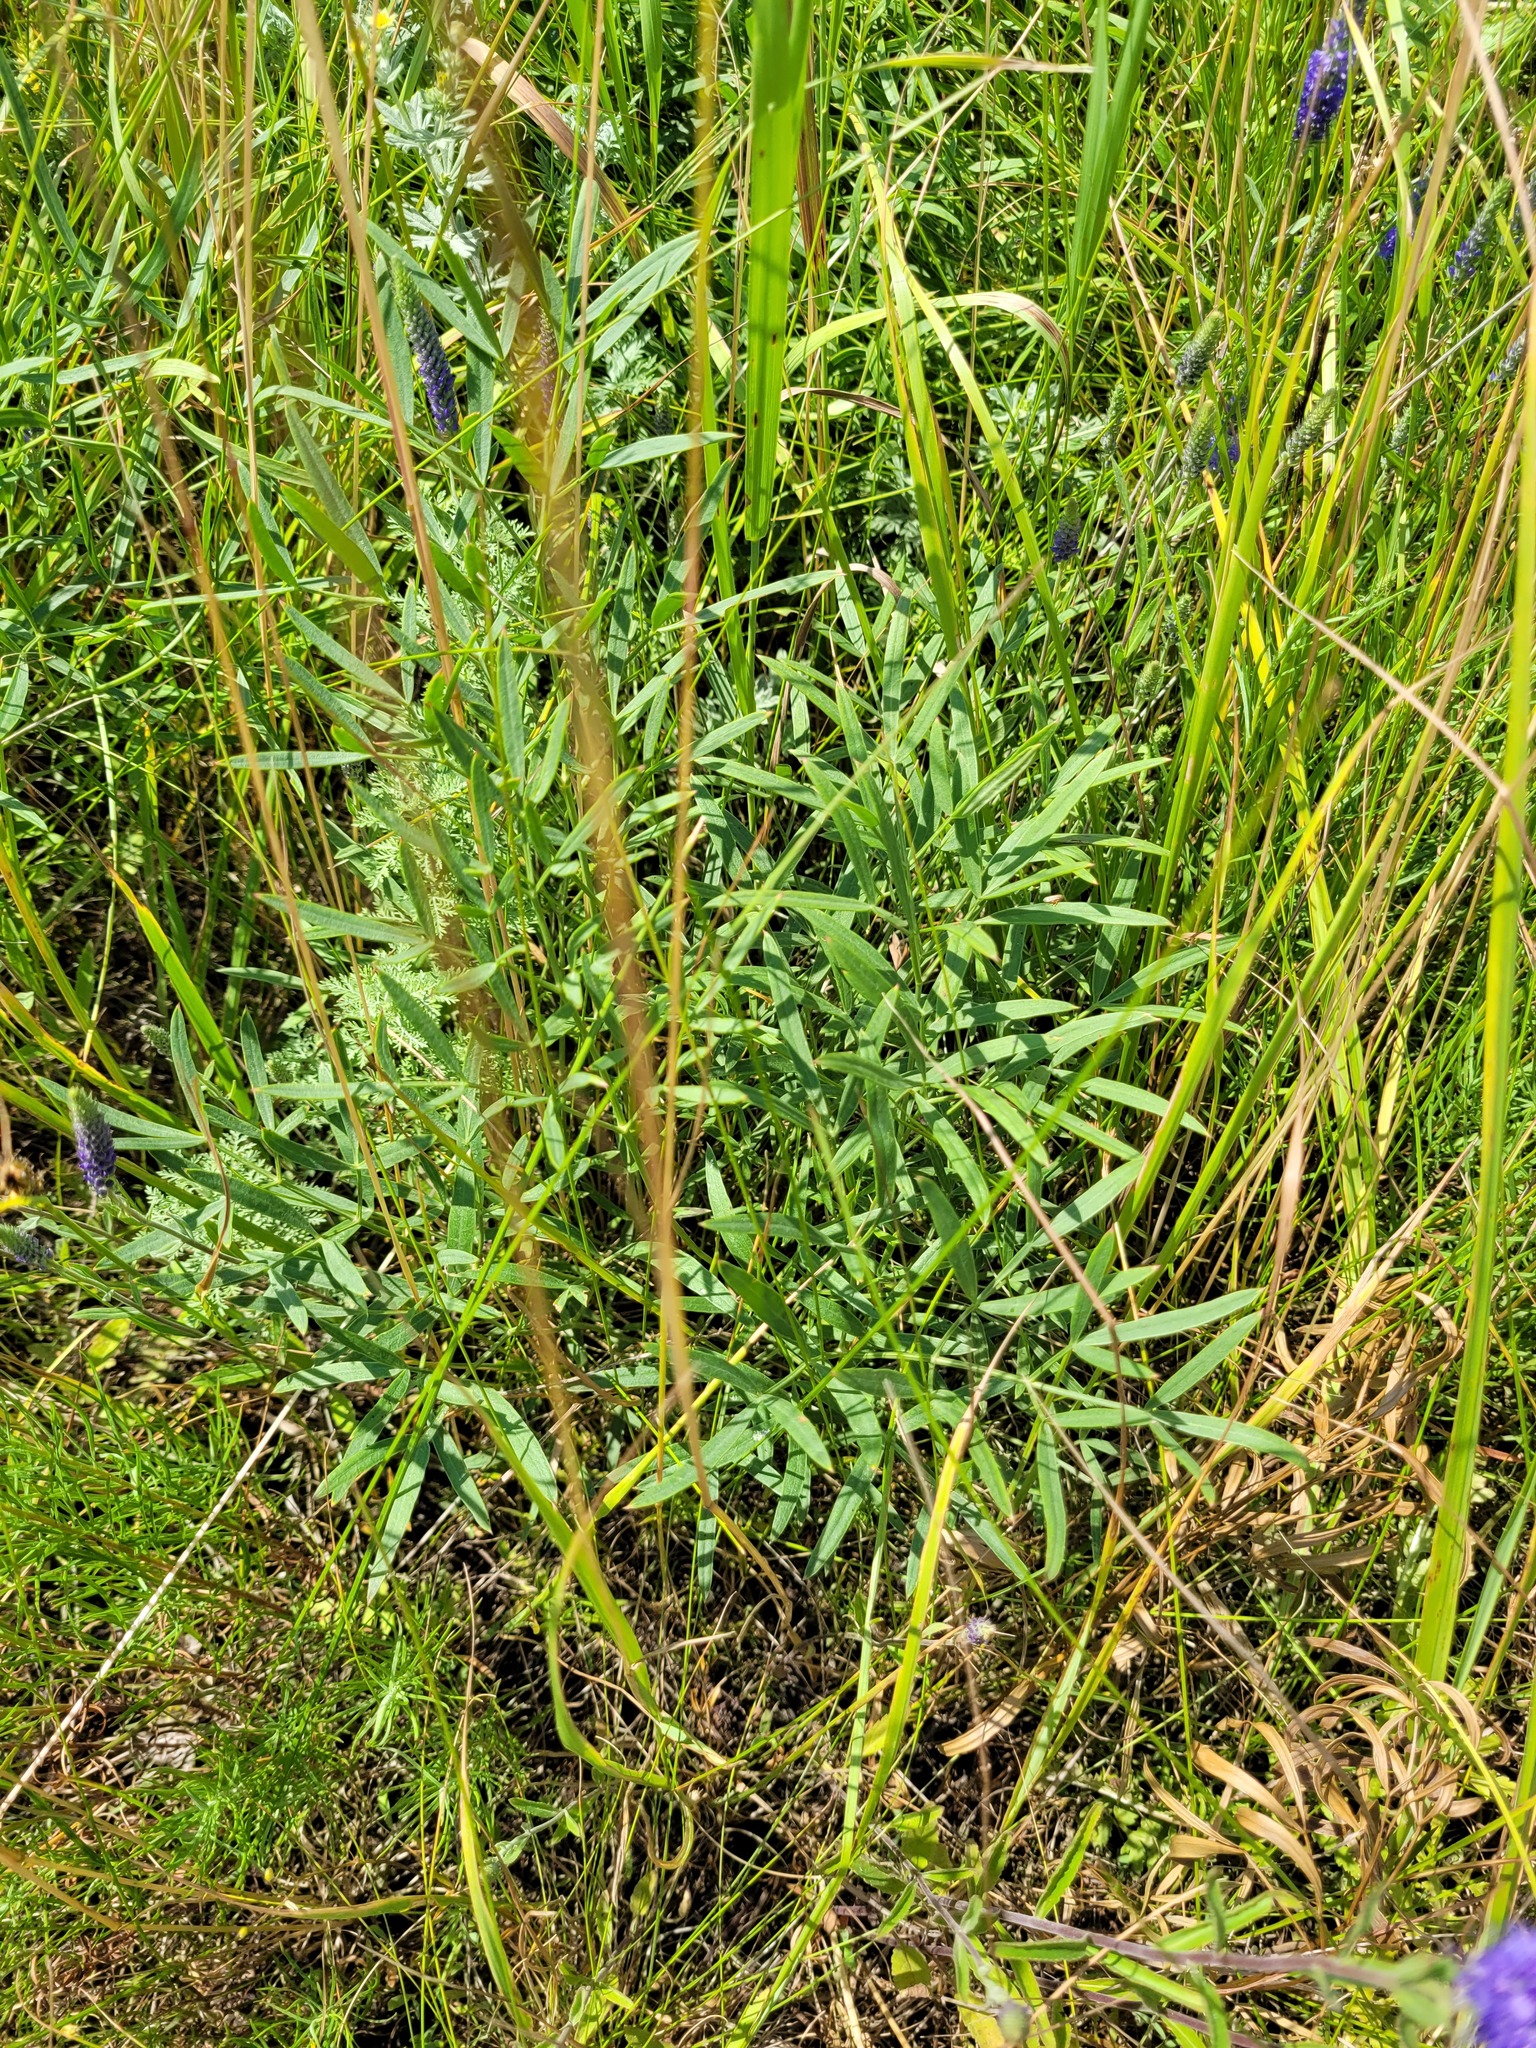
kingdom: Plantae
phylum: Tracheophyta
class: Magnoliopsida
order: Apiales
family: Apiaceae
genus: Peucedanum
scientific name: Peucedanum ruthenicum
